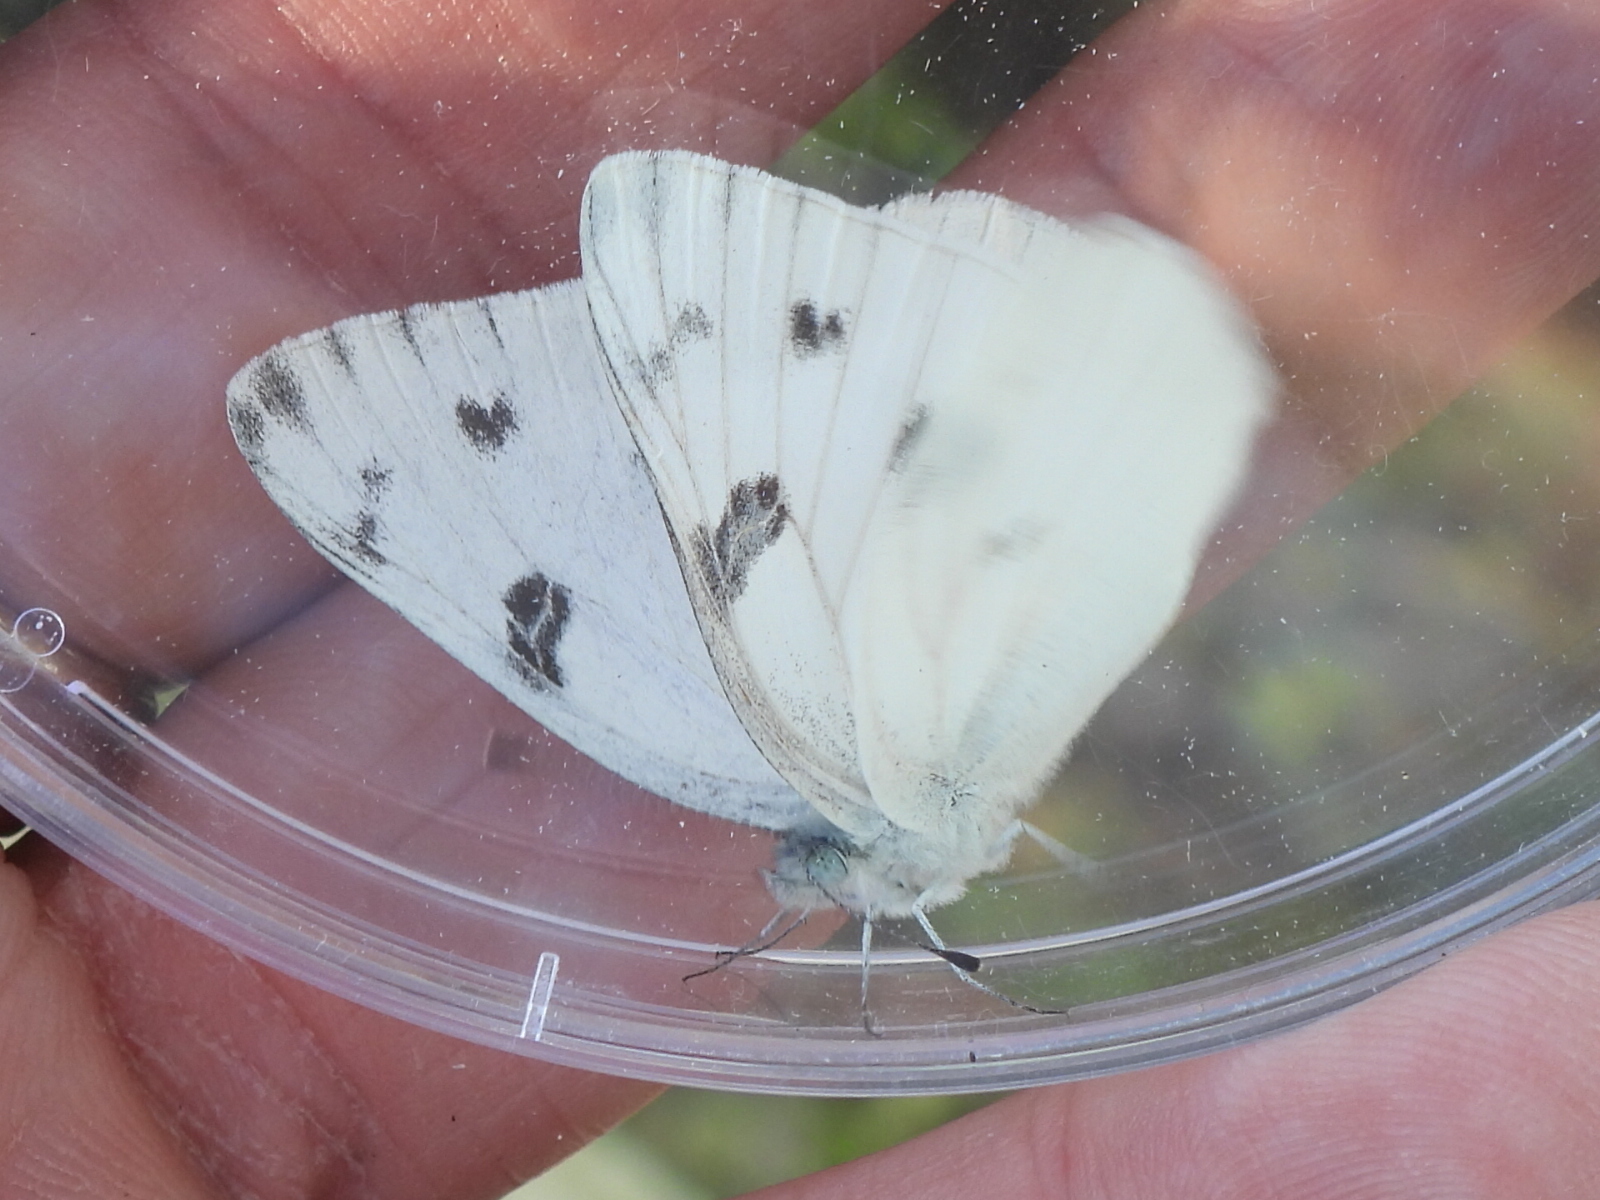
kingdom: Animalia
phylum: Arthropoda
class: Insecta
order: Lepidoptera
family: Pieridae
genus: Pontia
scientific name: Pontia protodice
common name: Checkered white
